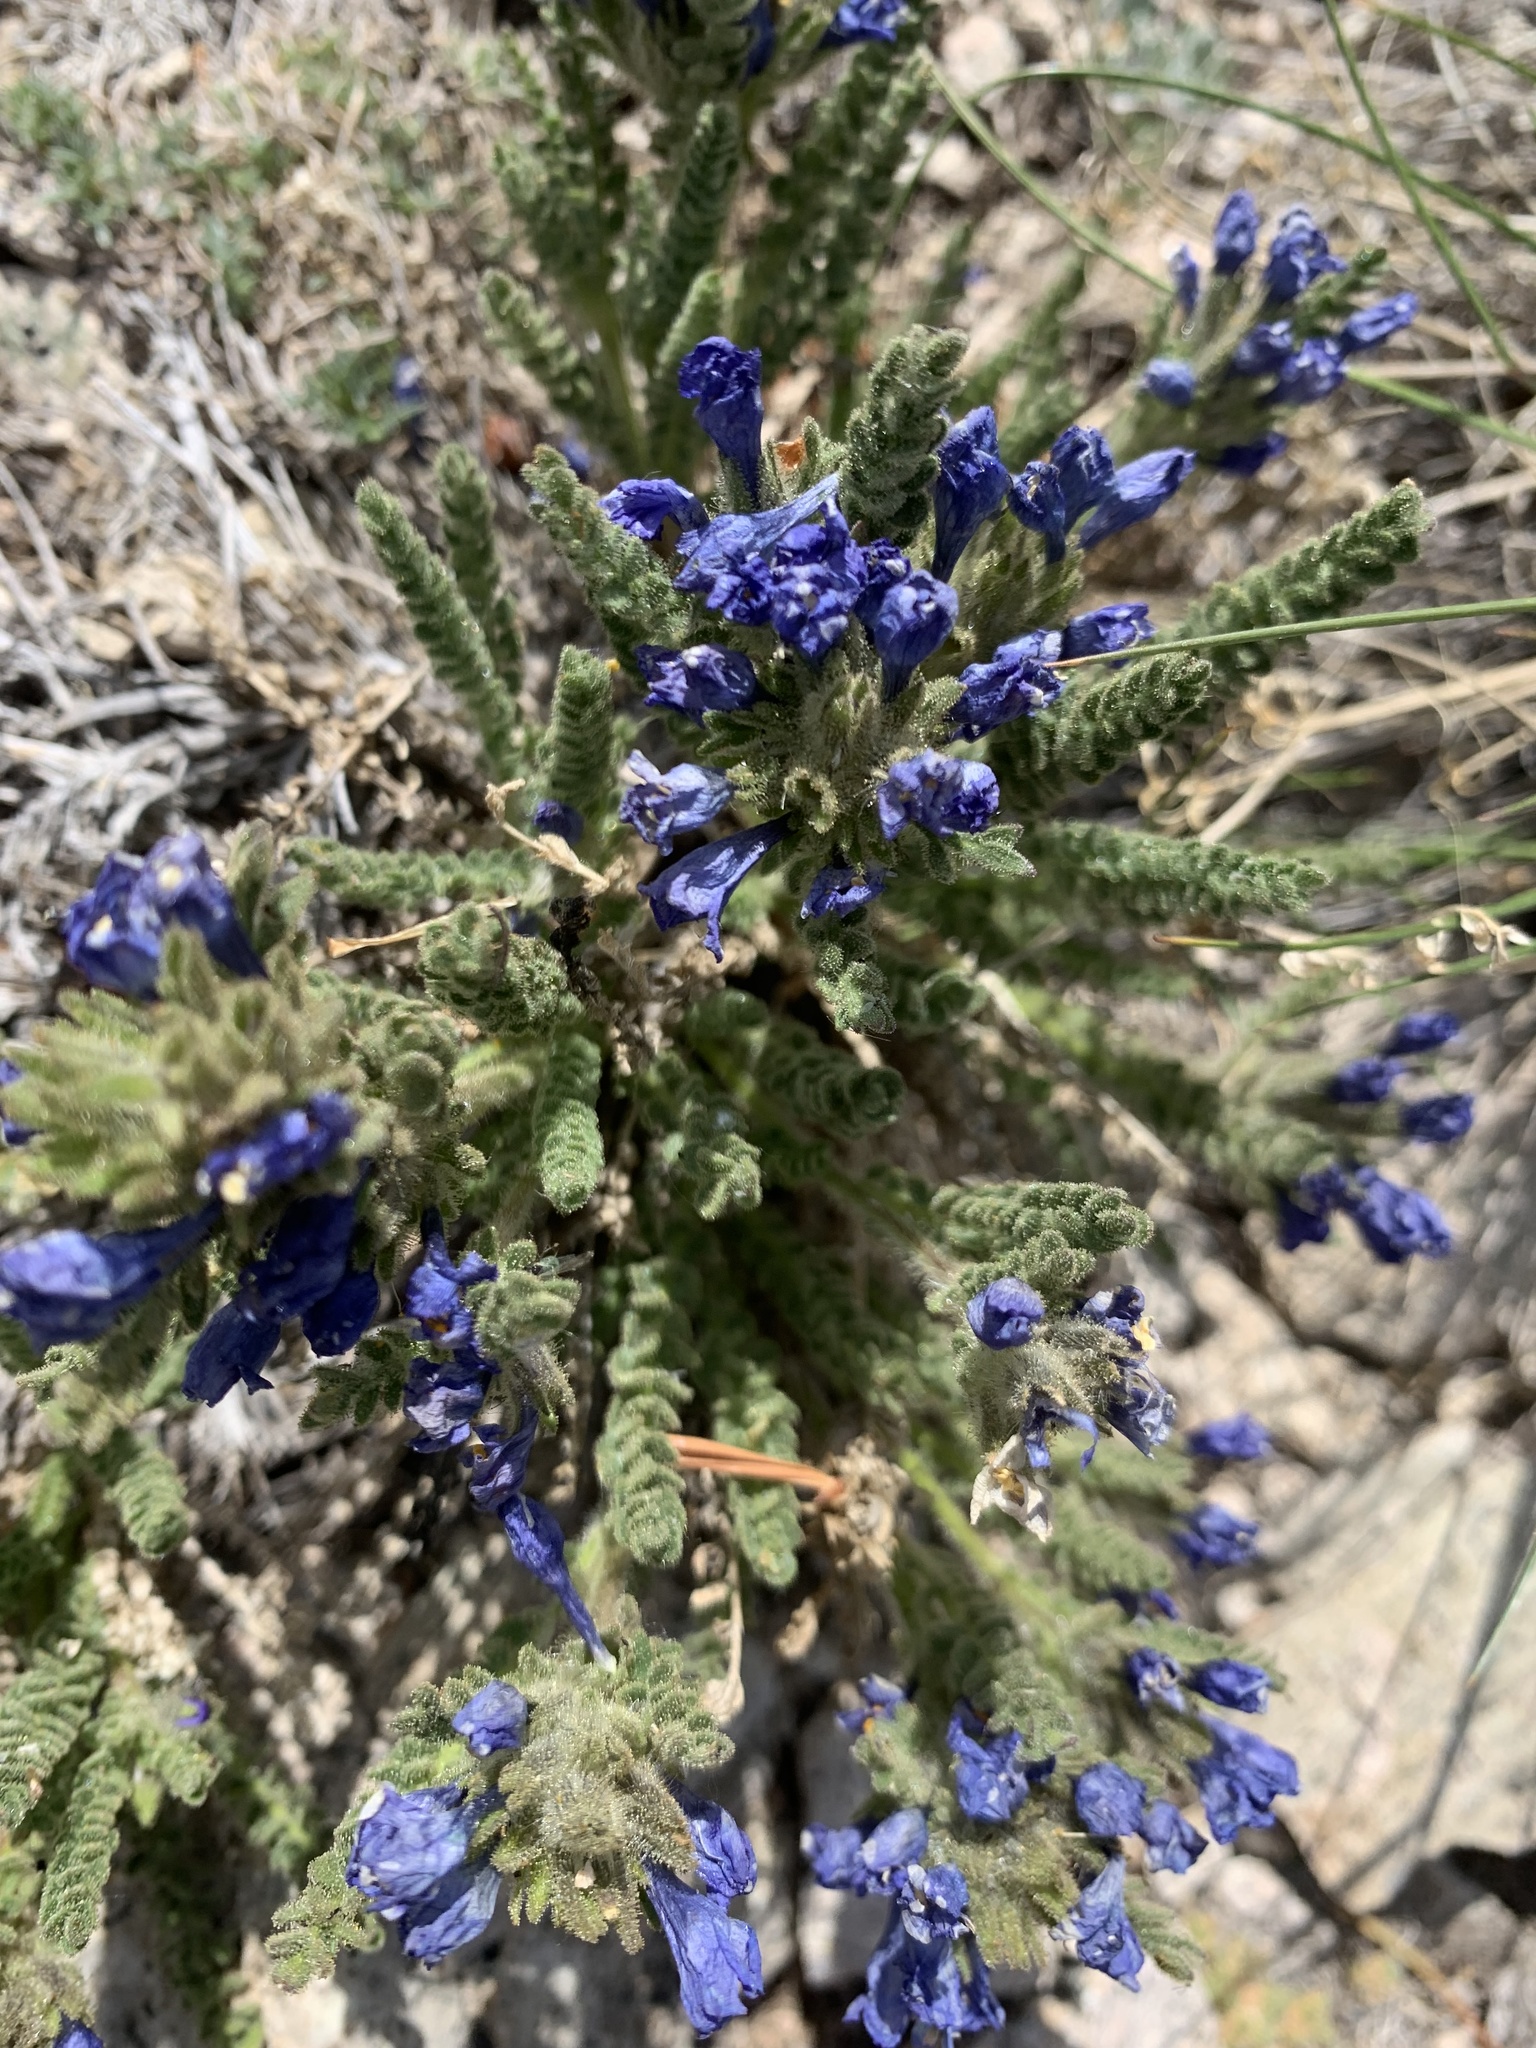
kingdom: Plantae
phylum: Tracheophyta
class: Magnoliopsida
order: Ericales
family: Polemoniaceae
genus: Polemonium
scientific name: Polemonium viscosum
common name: Skunk jacob's-ladder
